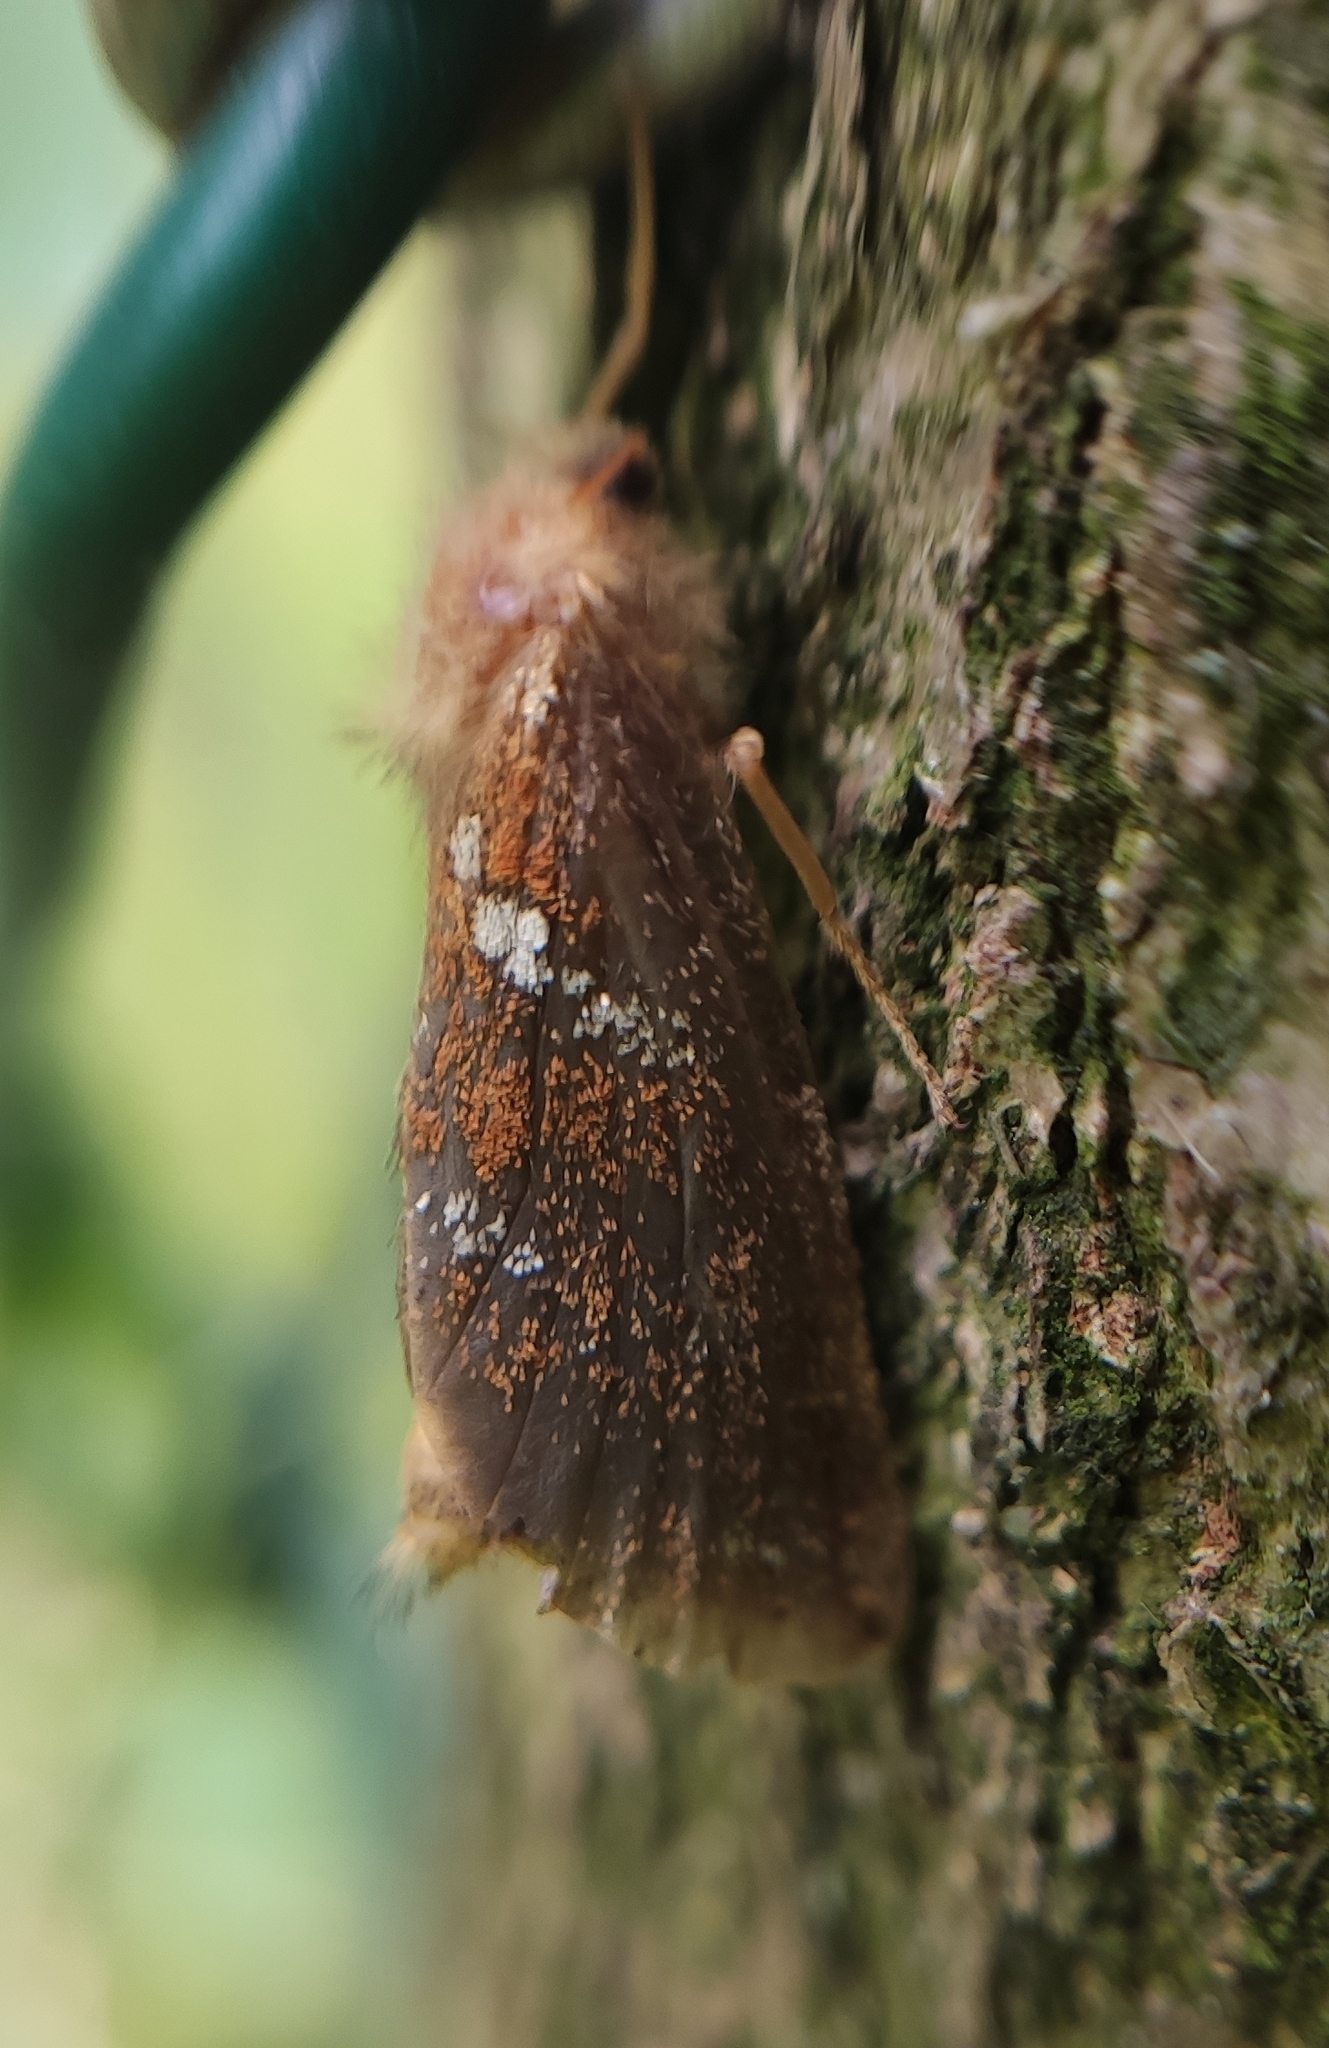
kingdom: Animalia
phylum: Arthropoda
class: Insecta
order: Lepidoptera
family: Hepialidae
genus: Phymatopus
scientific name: Phymatopus hecta
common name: Gold swift
